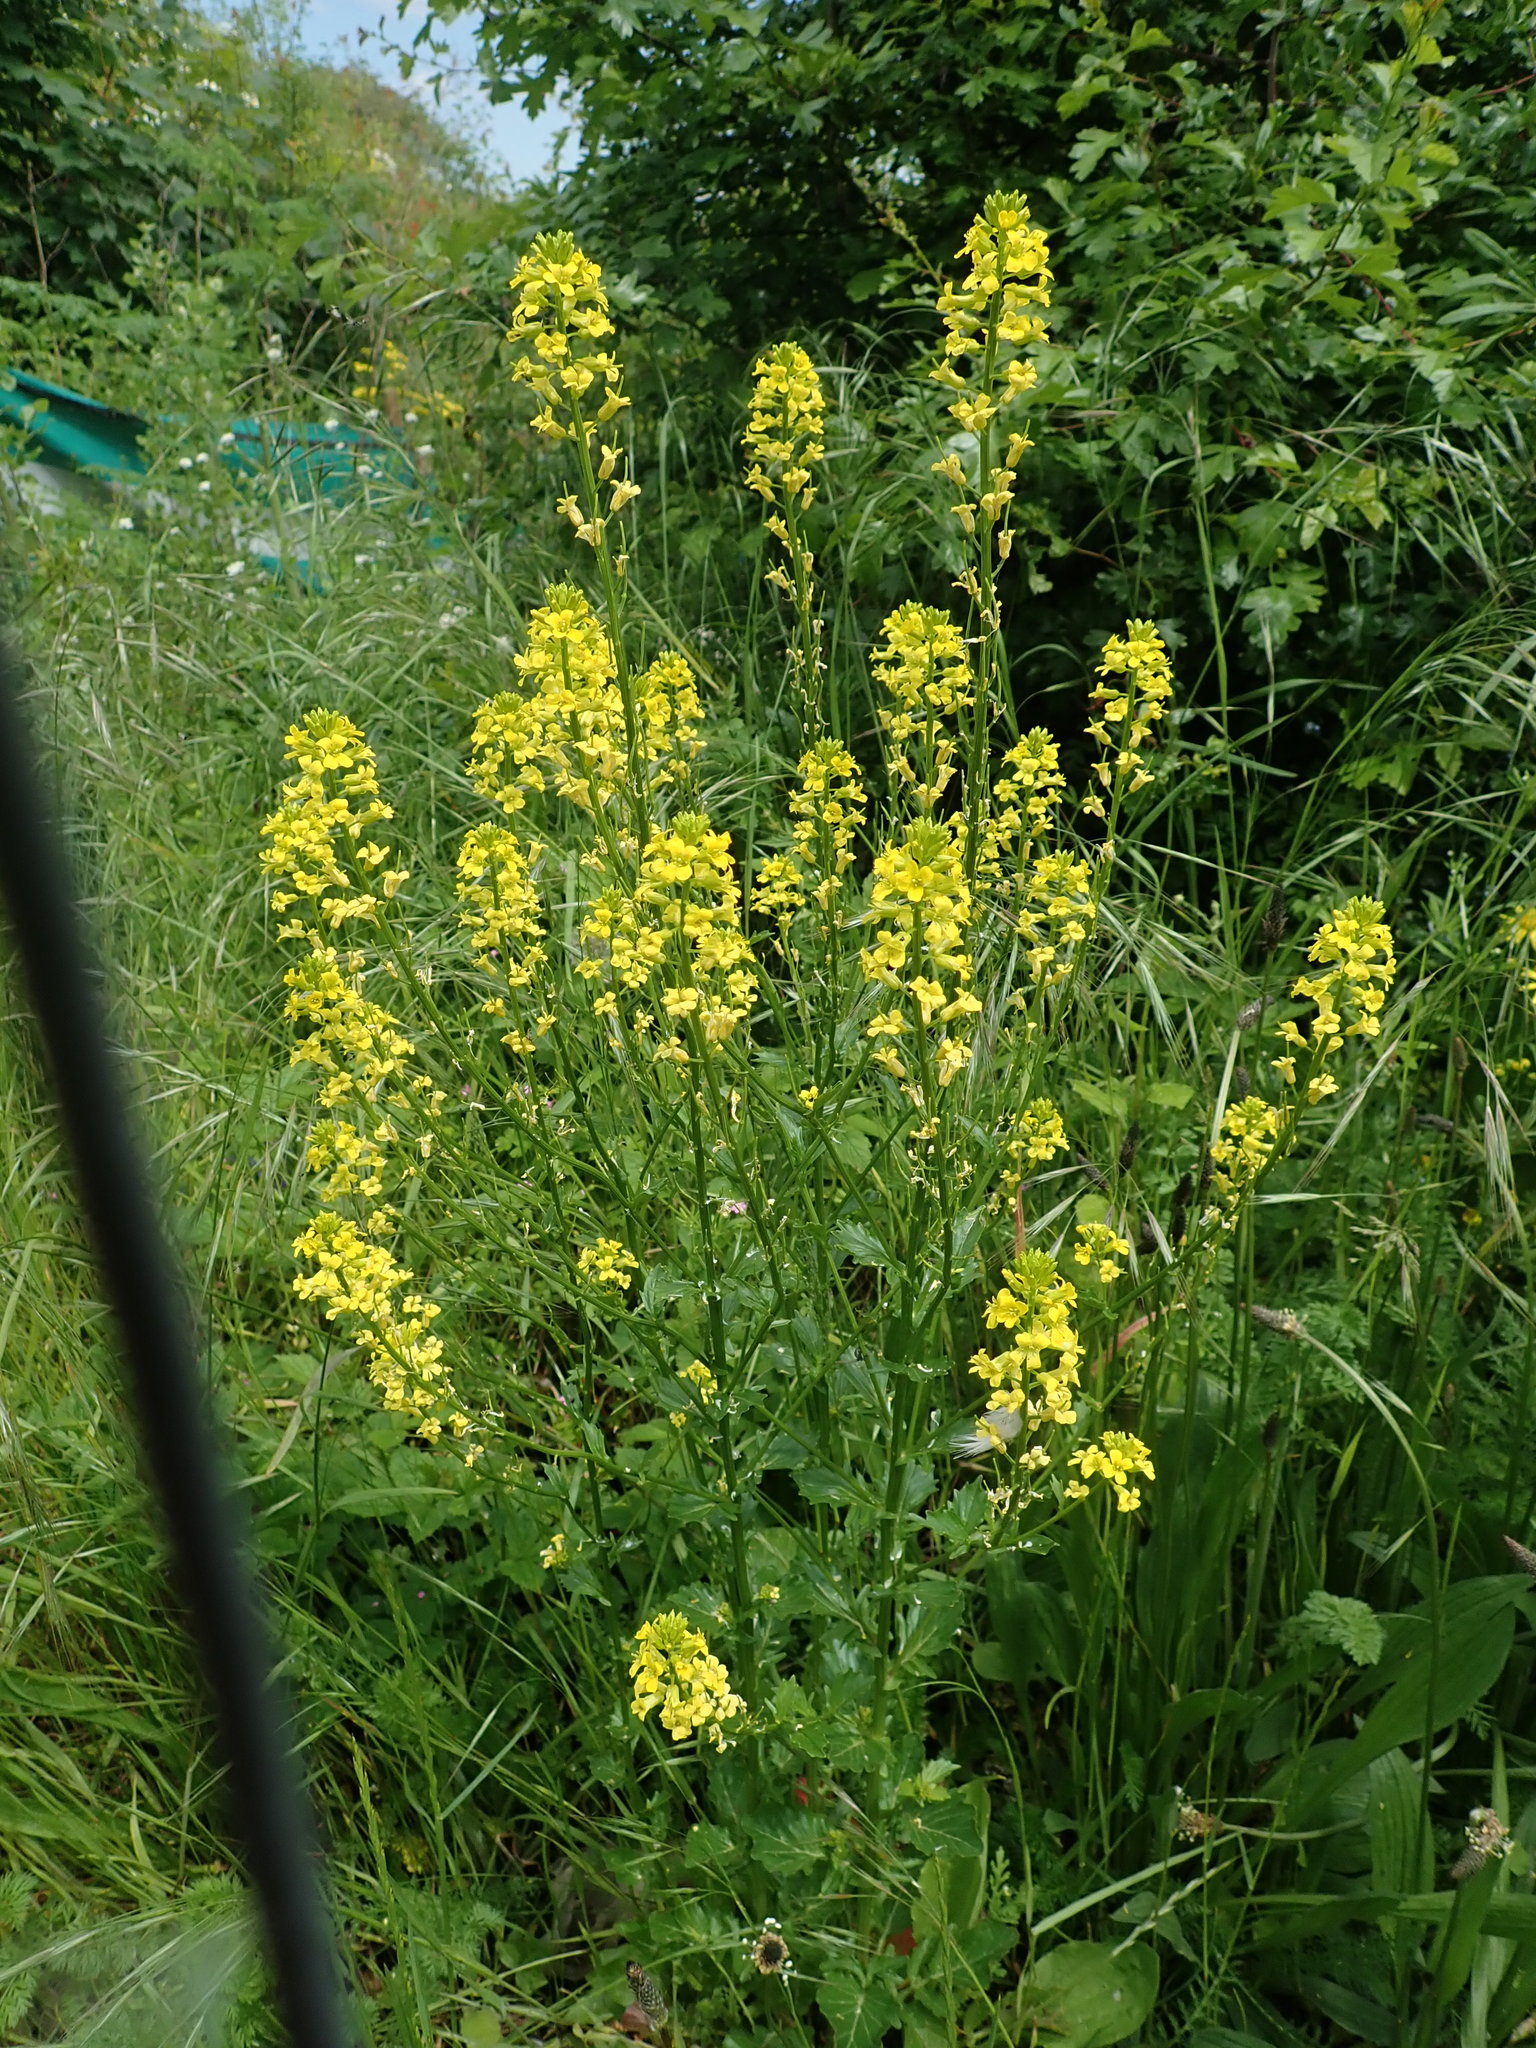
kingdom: Plantae
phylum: Tracheophyta
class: Magnoliopsida
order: Brassicales
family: Brassicaceae
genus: Barbarea
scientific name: Barbarea vulgaris
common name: Cressy-greens
